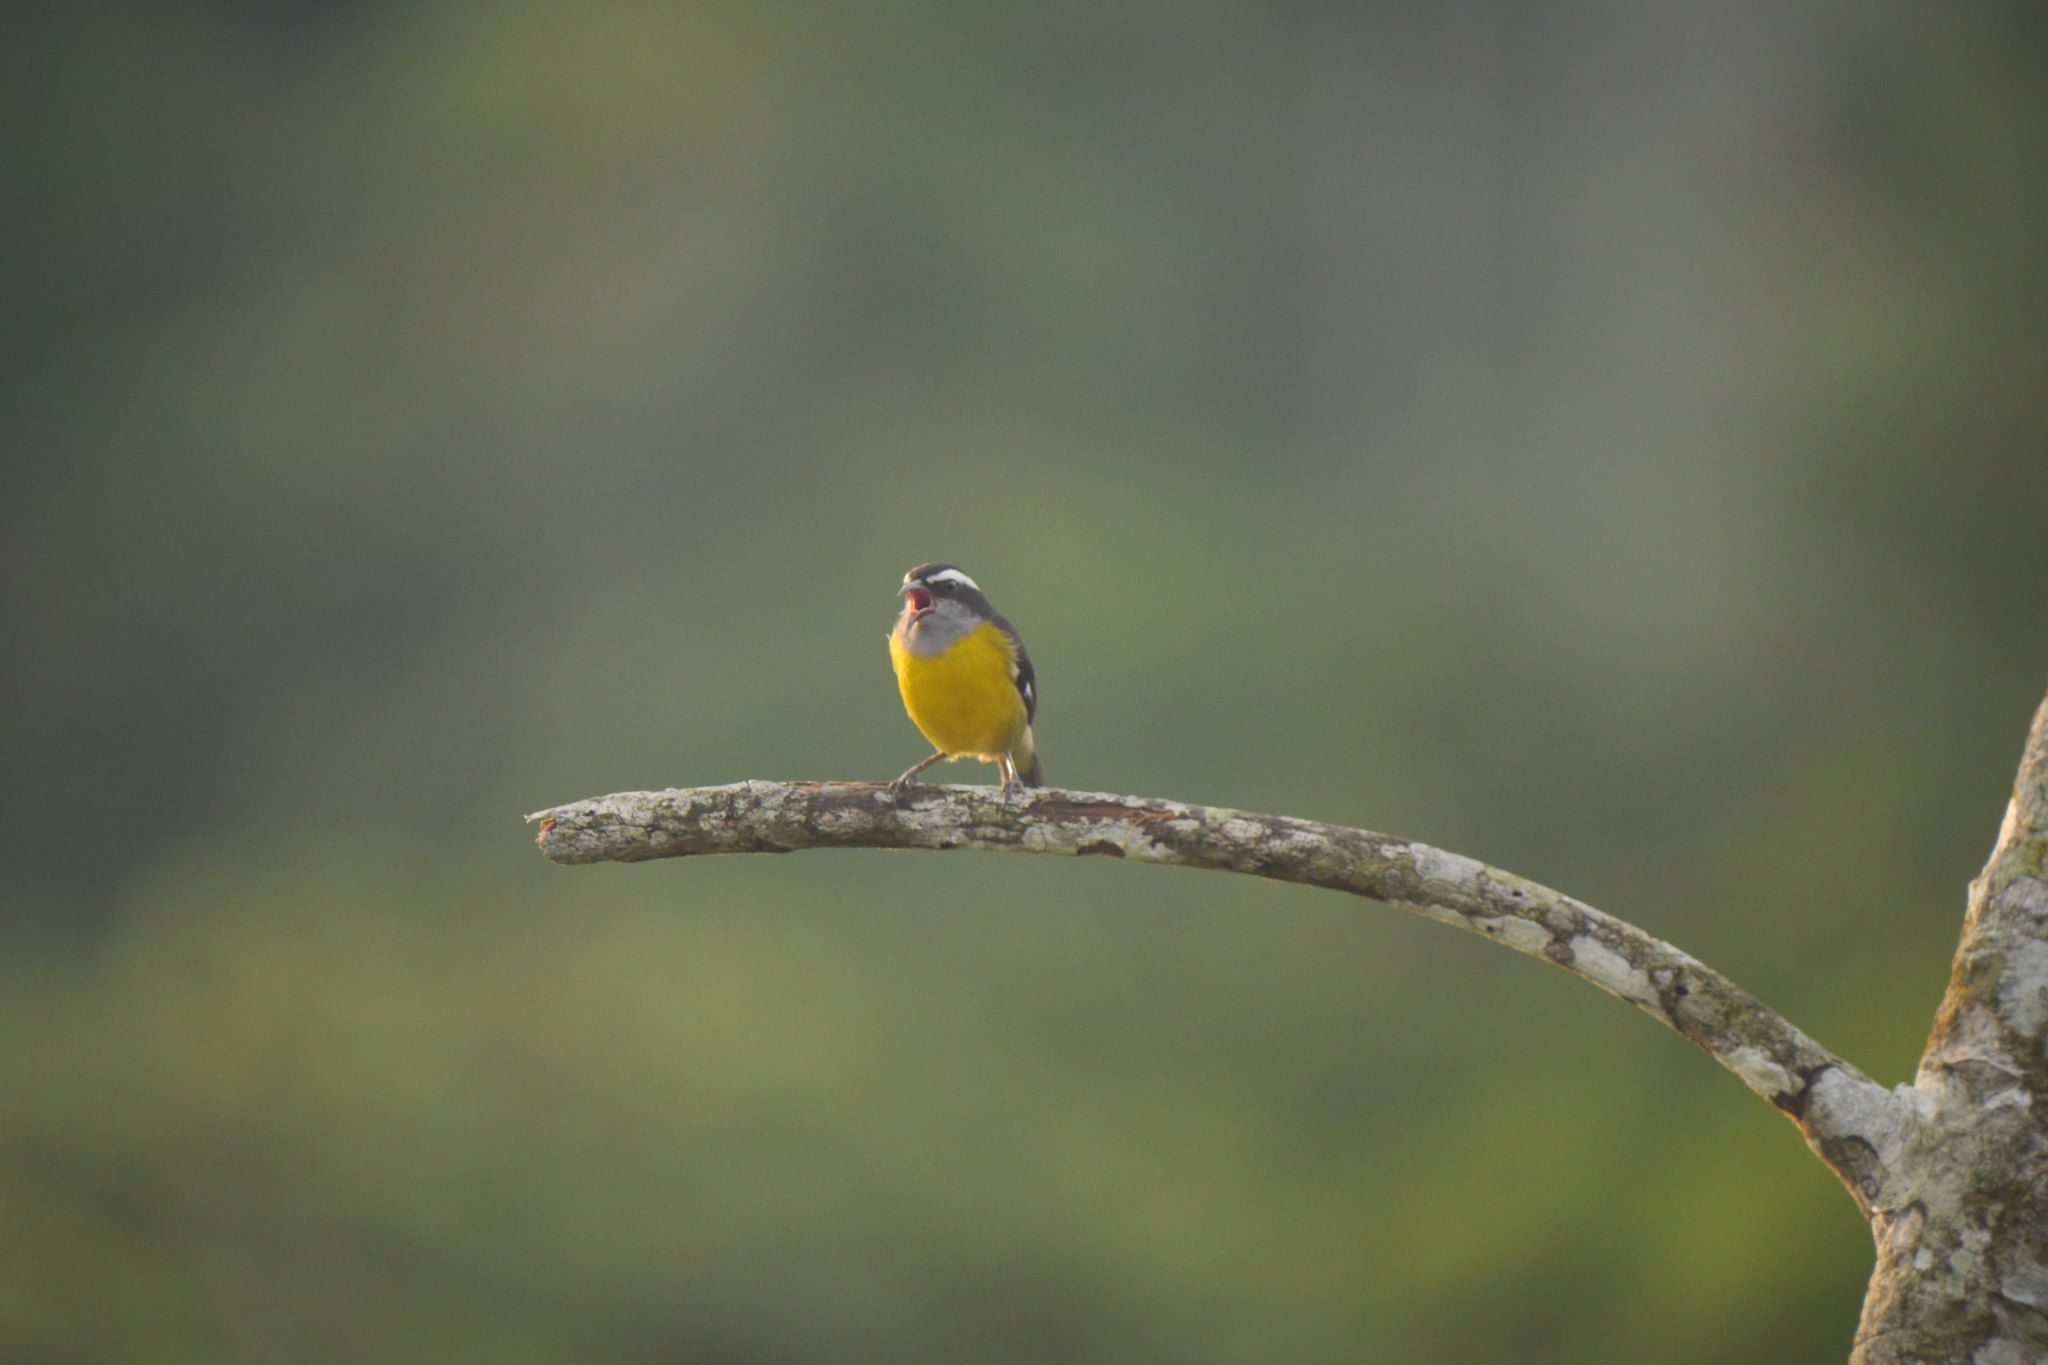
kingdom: Animalia
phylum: Chordata
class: Aves
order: Passeriformes
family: Thraupidae
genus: Coereba
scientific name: Coereba flaveola
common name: Bananaquit
